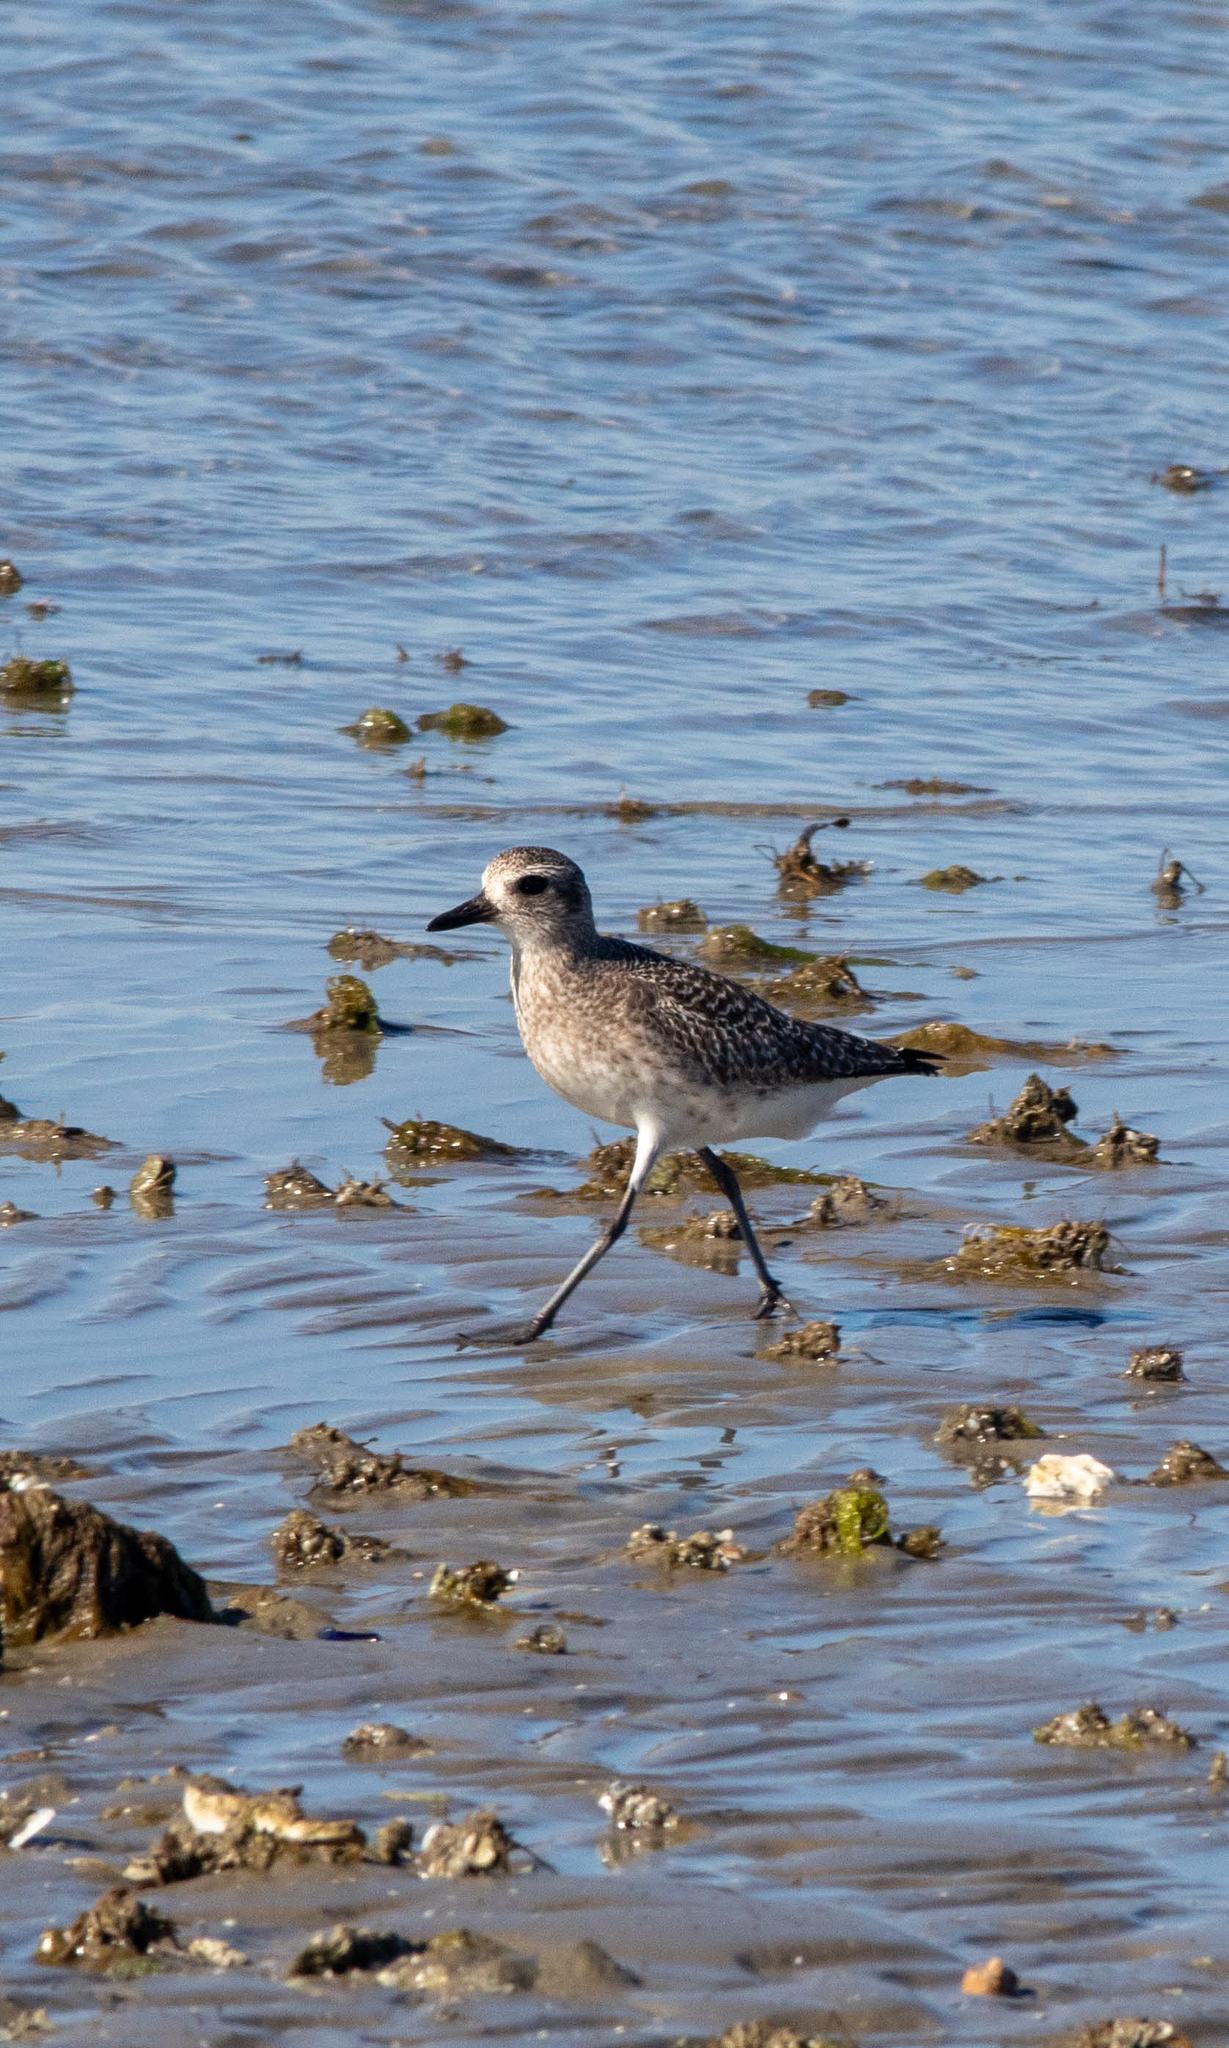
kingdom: Animalia
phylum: Chordata
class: Aves
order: Charadriiformes
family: Charadriidae
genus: Pluvialis
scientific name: Pluvialis squatarola
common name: Grey plover
